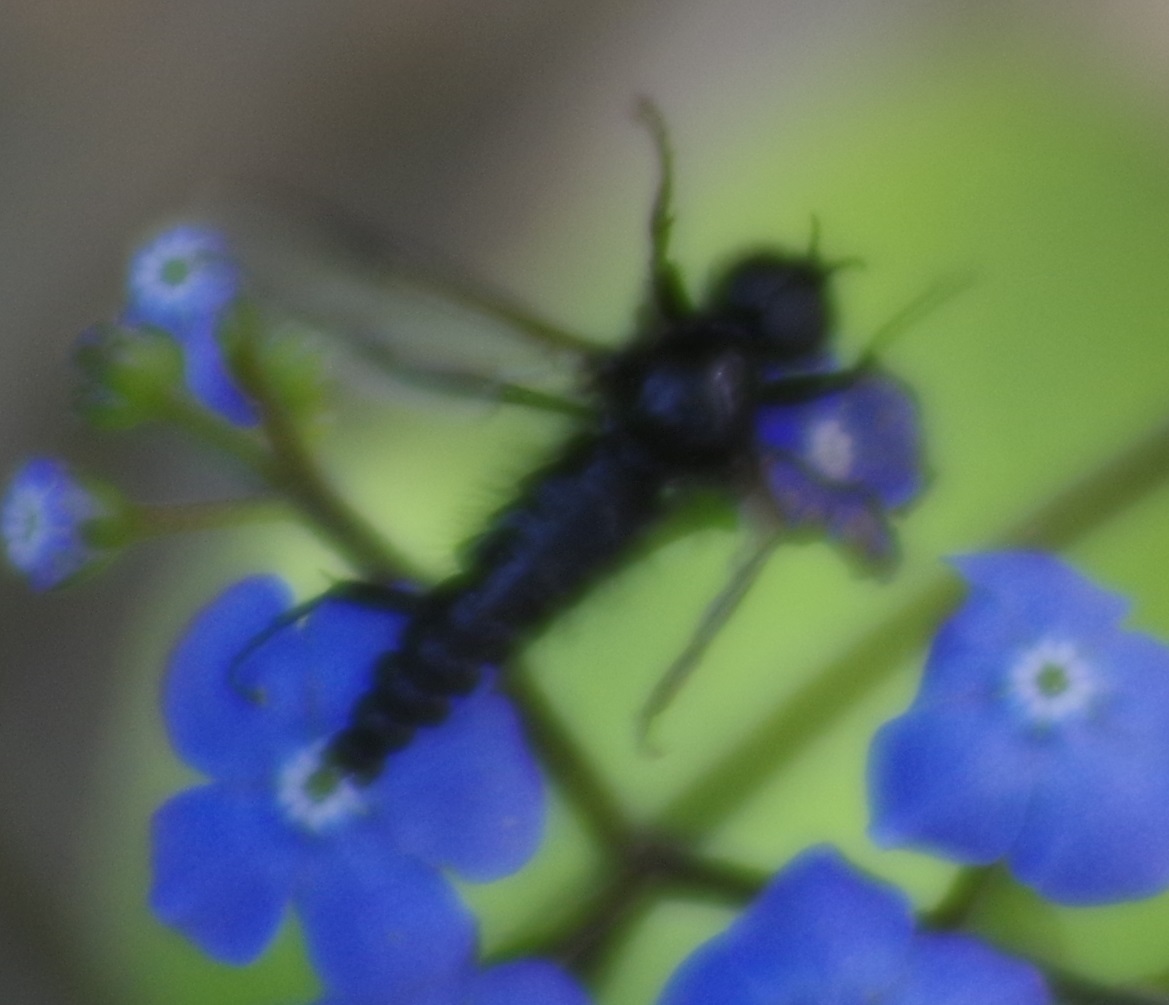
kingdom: Animalia
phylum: Arthropoda
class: Insecta
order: Diptera
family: Bibionidae
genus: Bibio
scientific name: Bibio marci
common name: St marks fly
